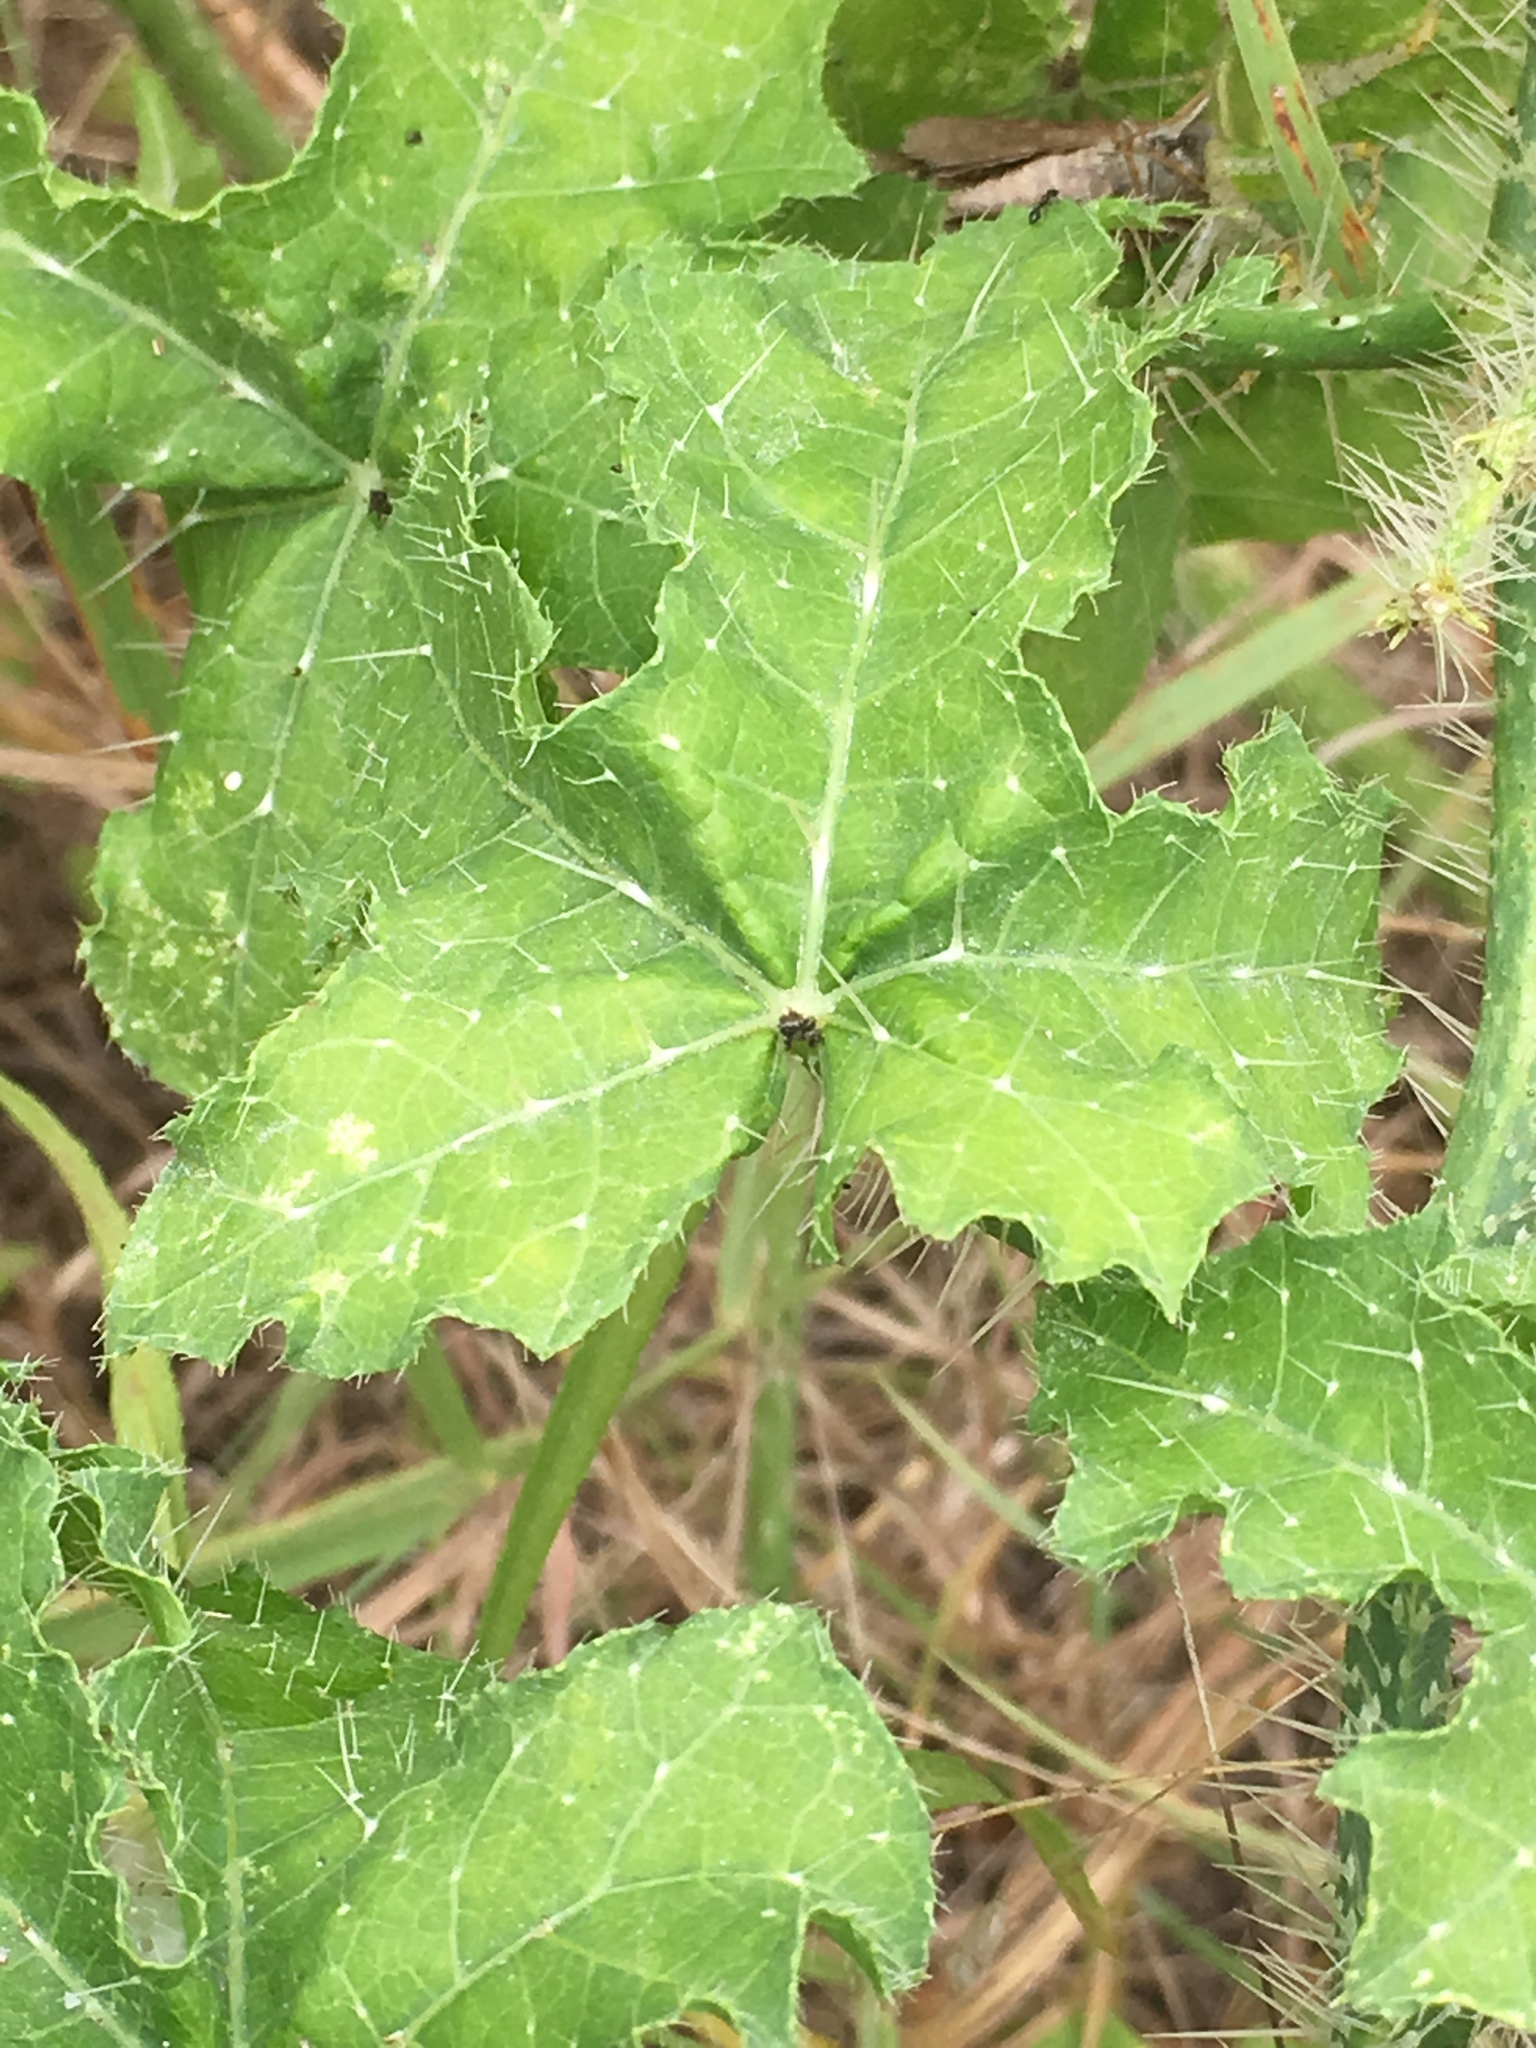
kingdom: Plantae
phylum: Tracheophyta
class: Magnoliopsida
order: Malpighiales
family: Euphorbiaceae
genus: Cnidoscolus
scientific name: Cnidoscolus texanus
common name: Texas bull-nettle
